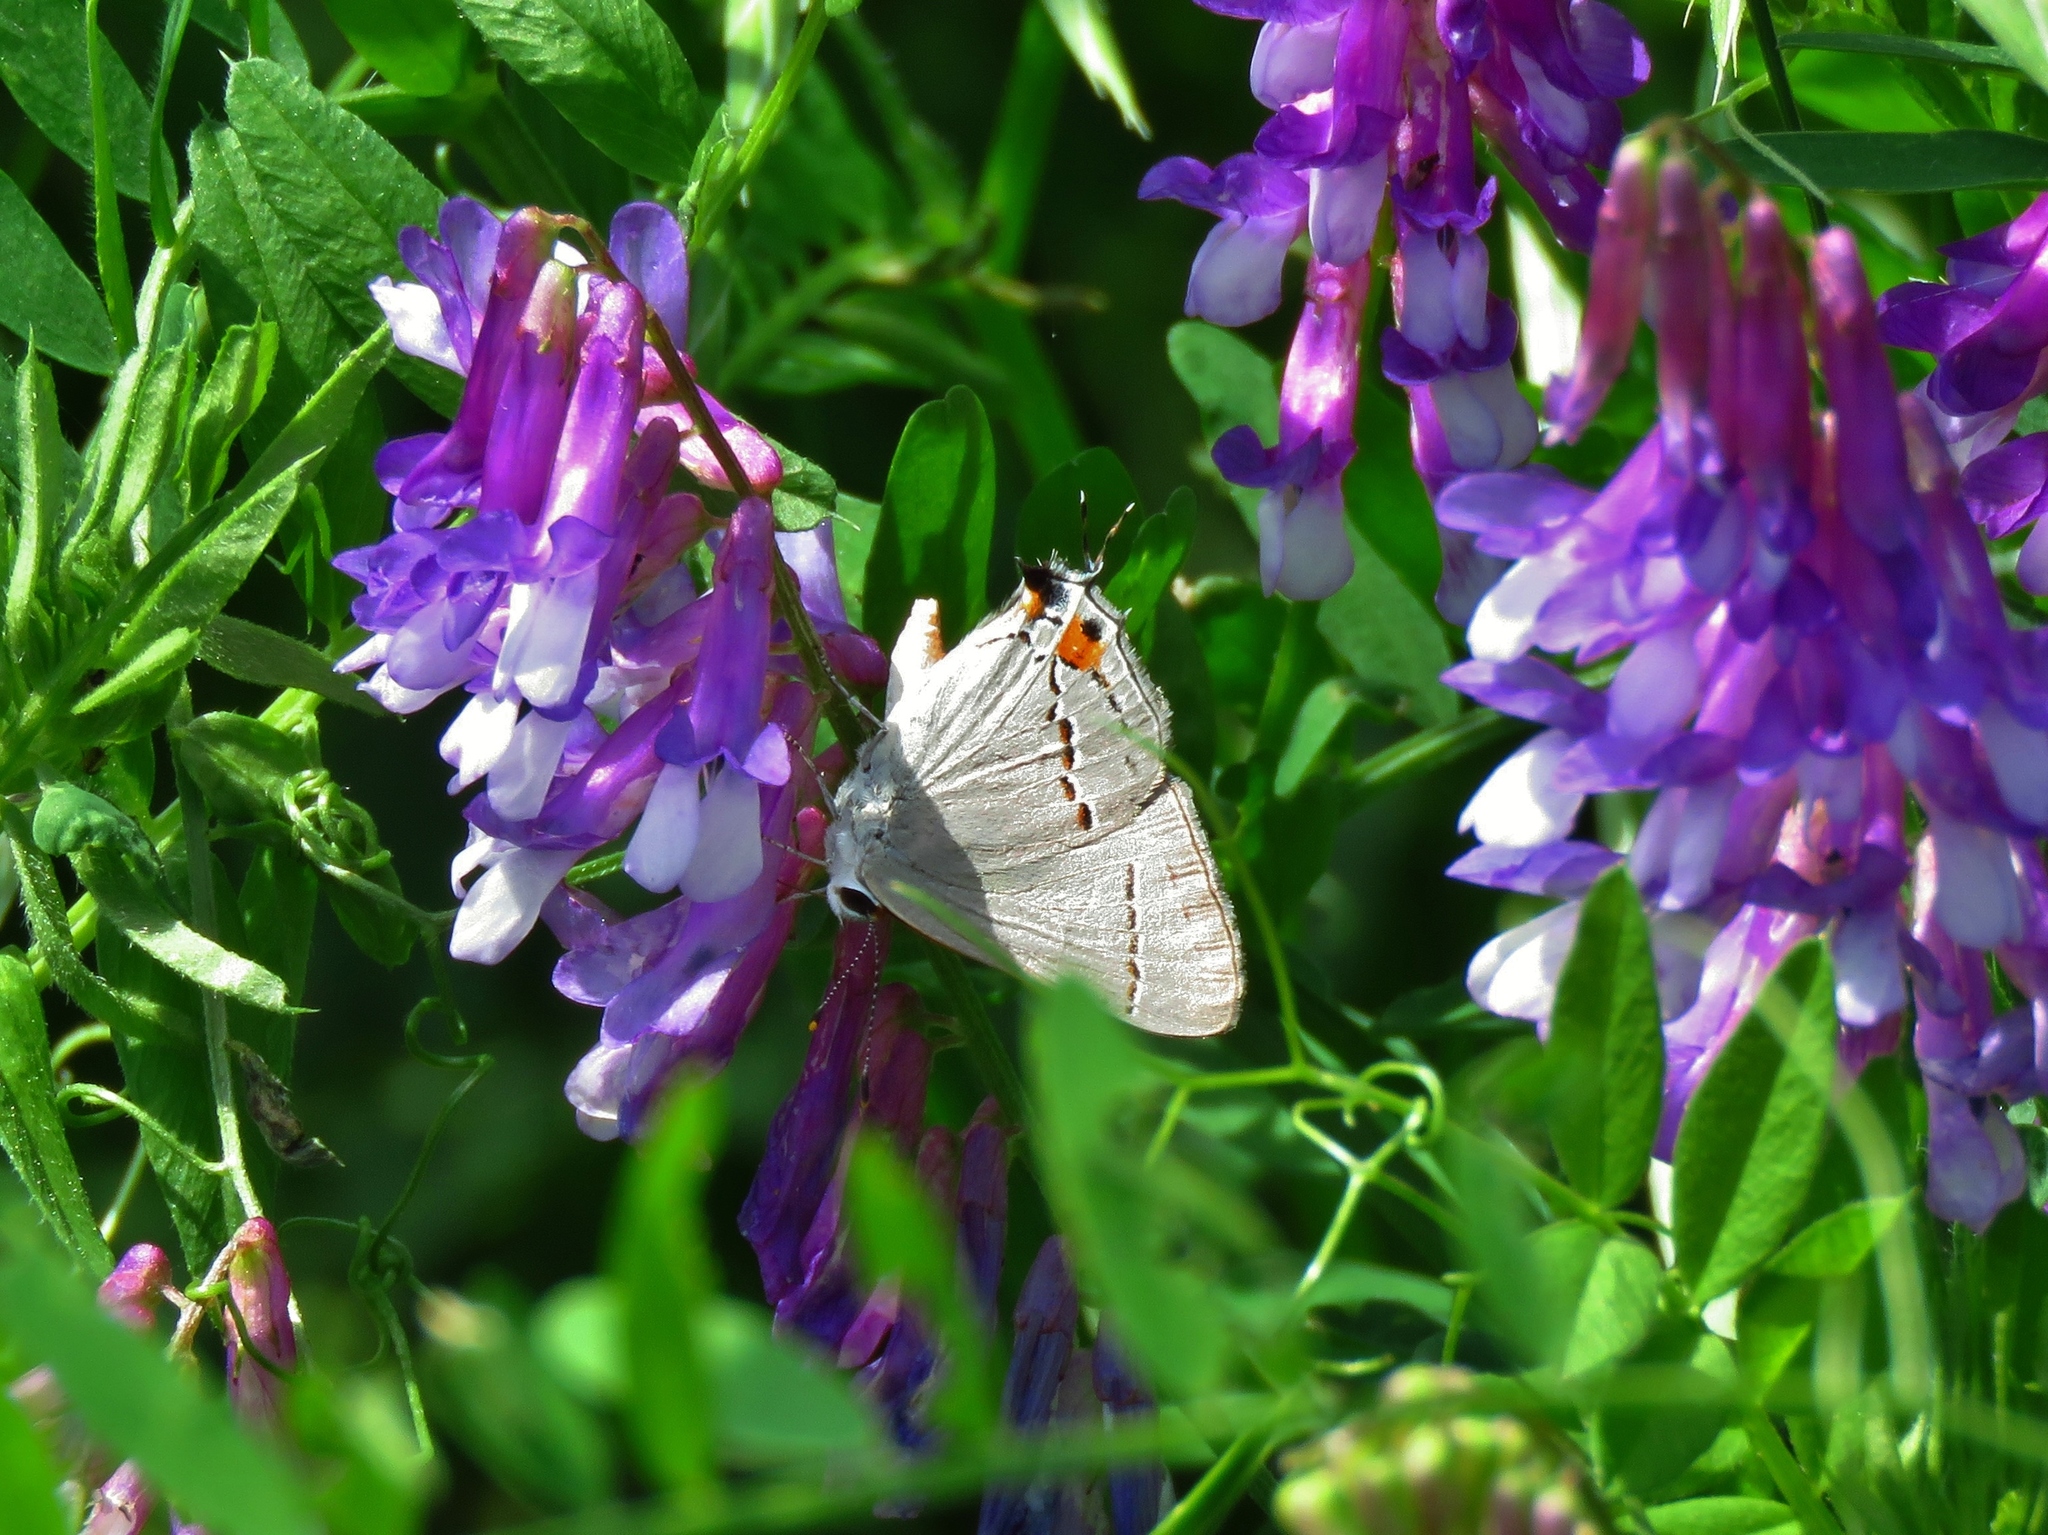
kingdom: Animalia
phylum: Arthropoda
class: Insecta
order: Lepidoptera
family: Lycaenidae
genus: Strymon
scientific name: Strymon melinus
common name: Gray hairstreak
